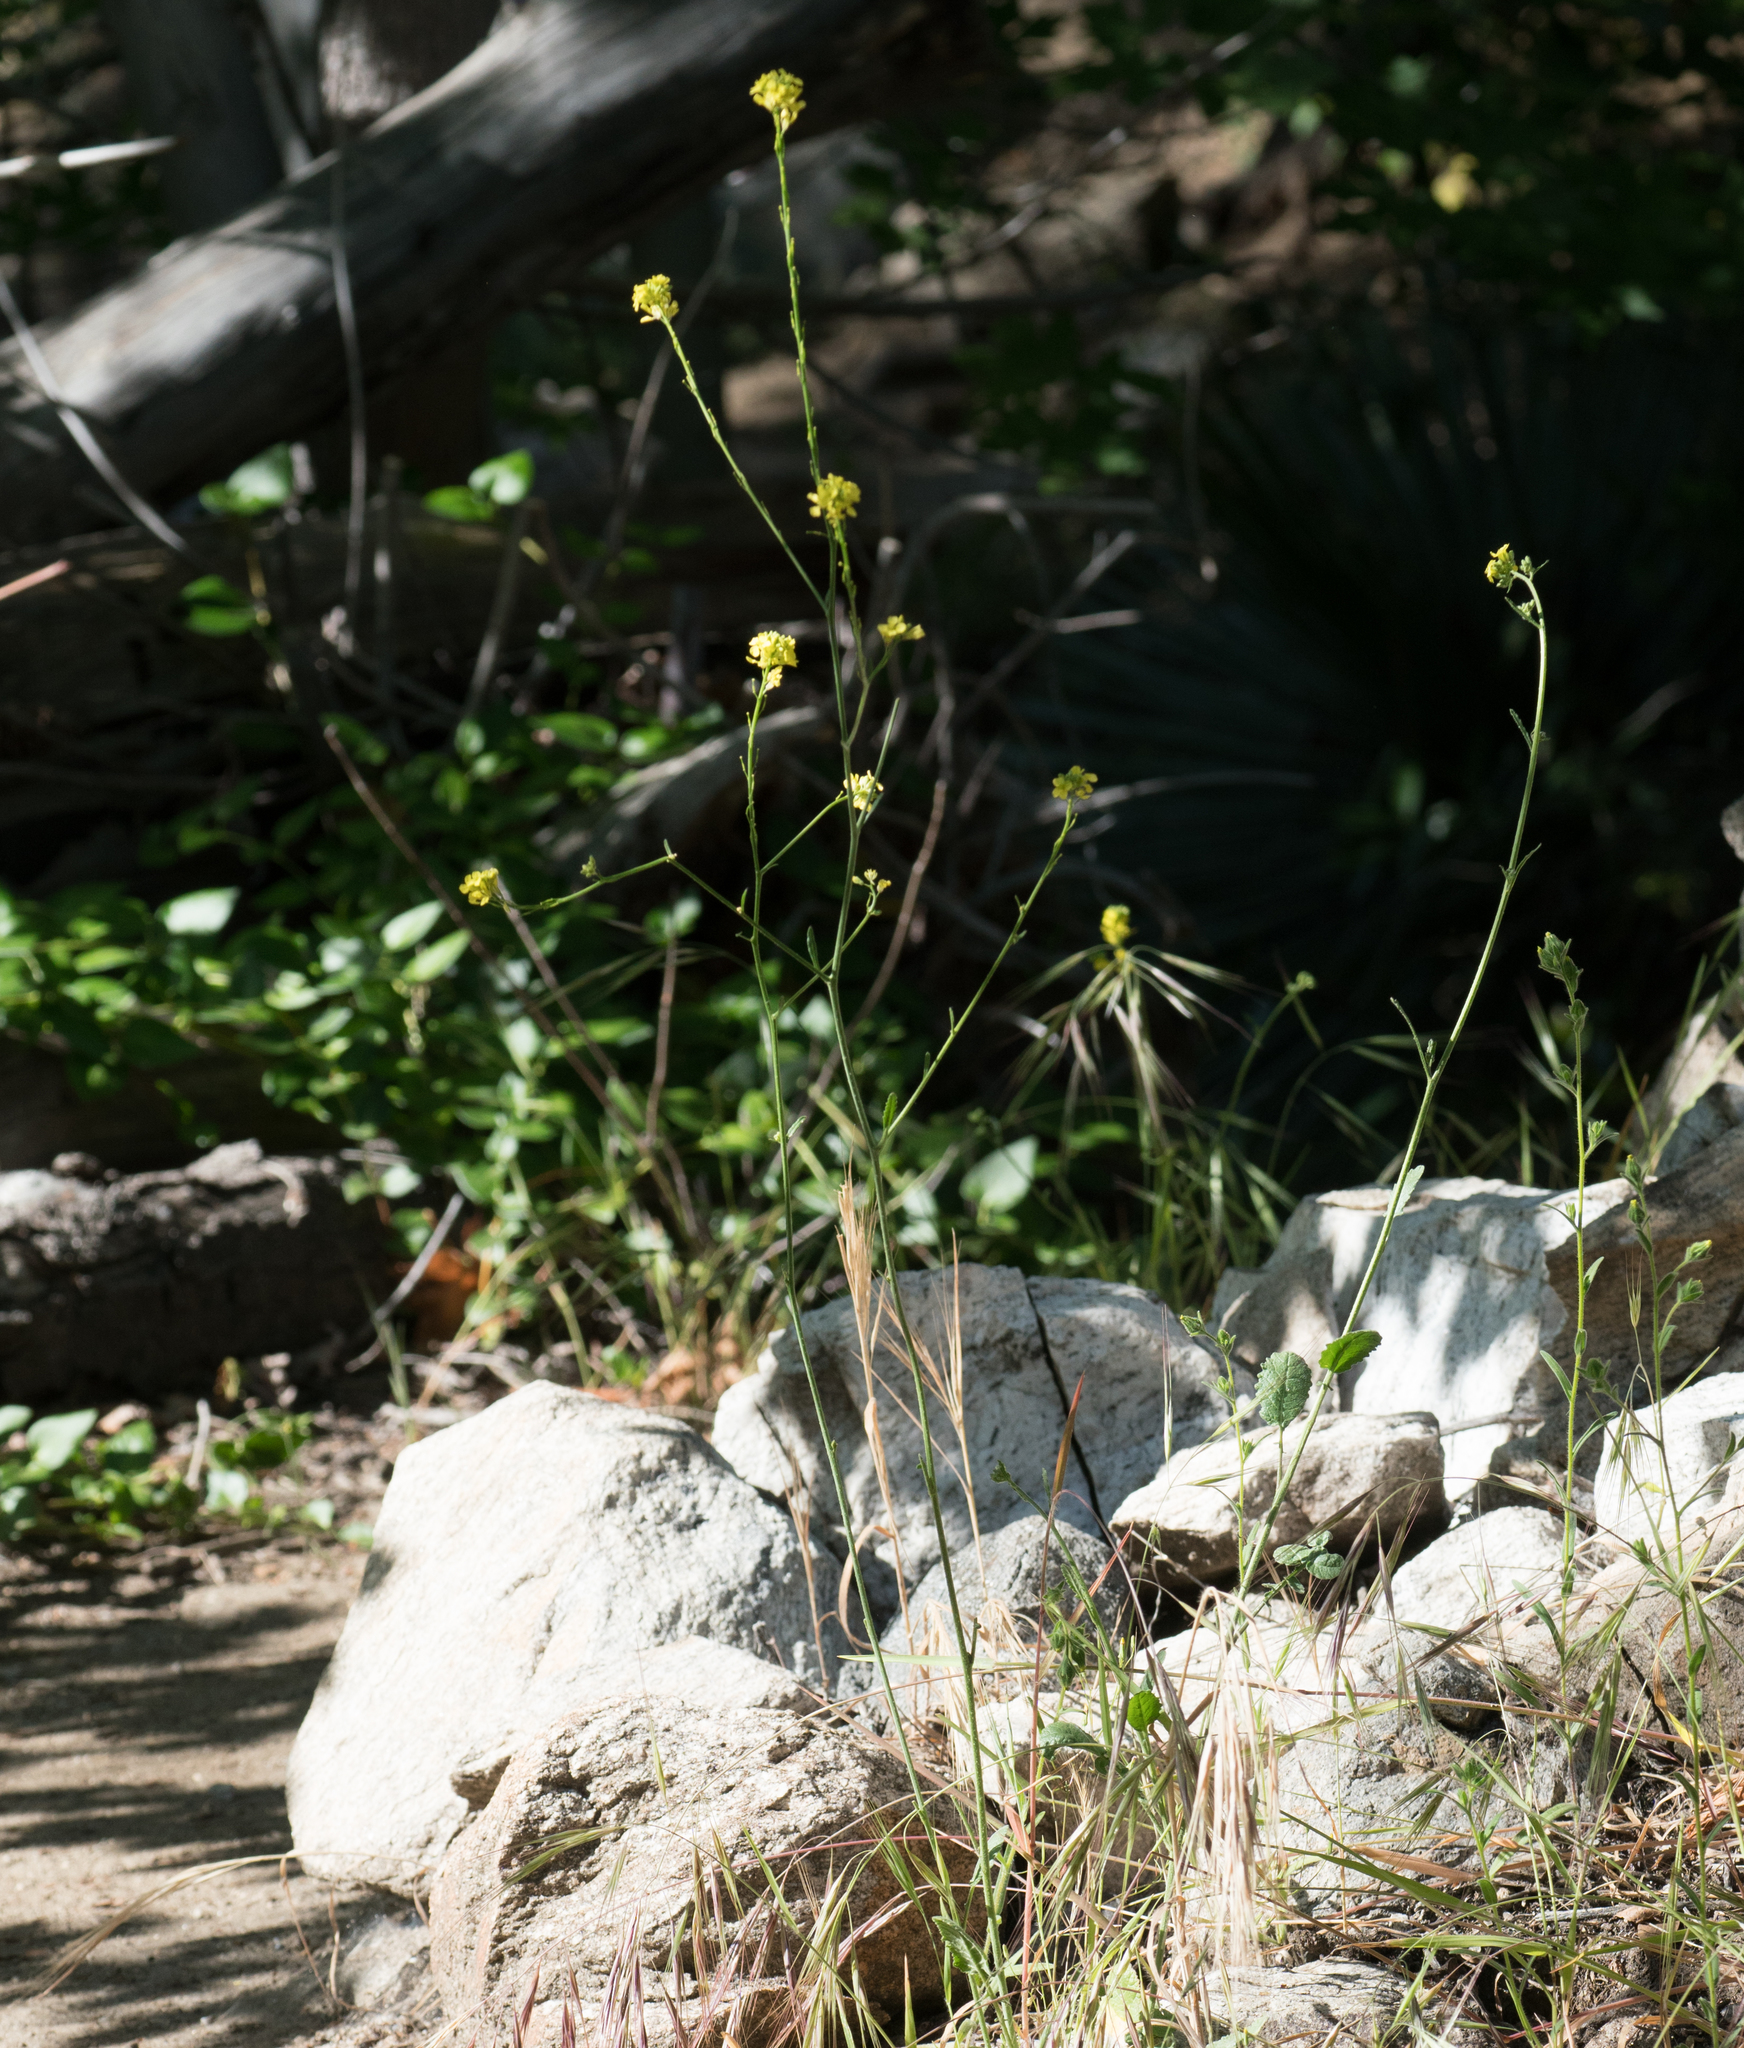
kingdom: Plantae
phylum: Tracheophyta
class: Magnoliopsida
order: Brassicales
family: Brassicaceae
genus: Hirschfeldia
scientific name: Hirschfeldia incana
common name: Hoary mustard
